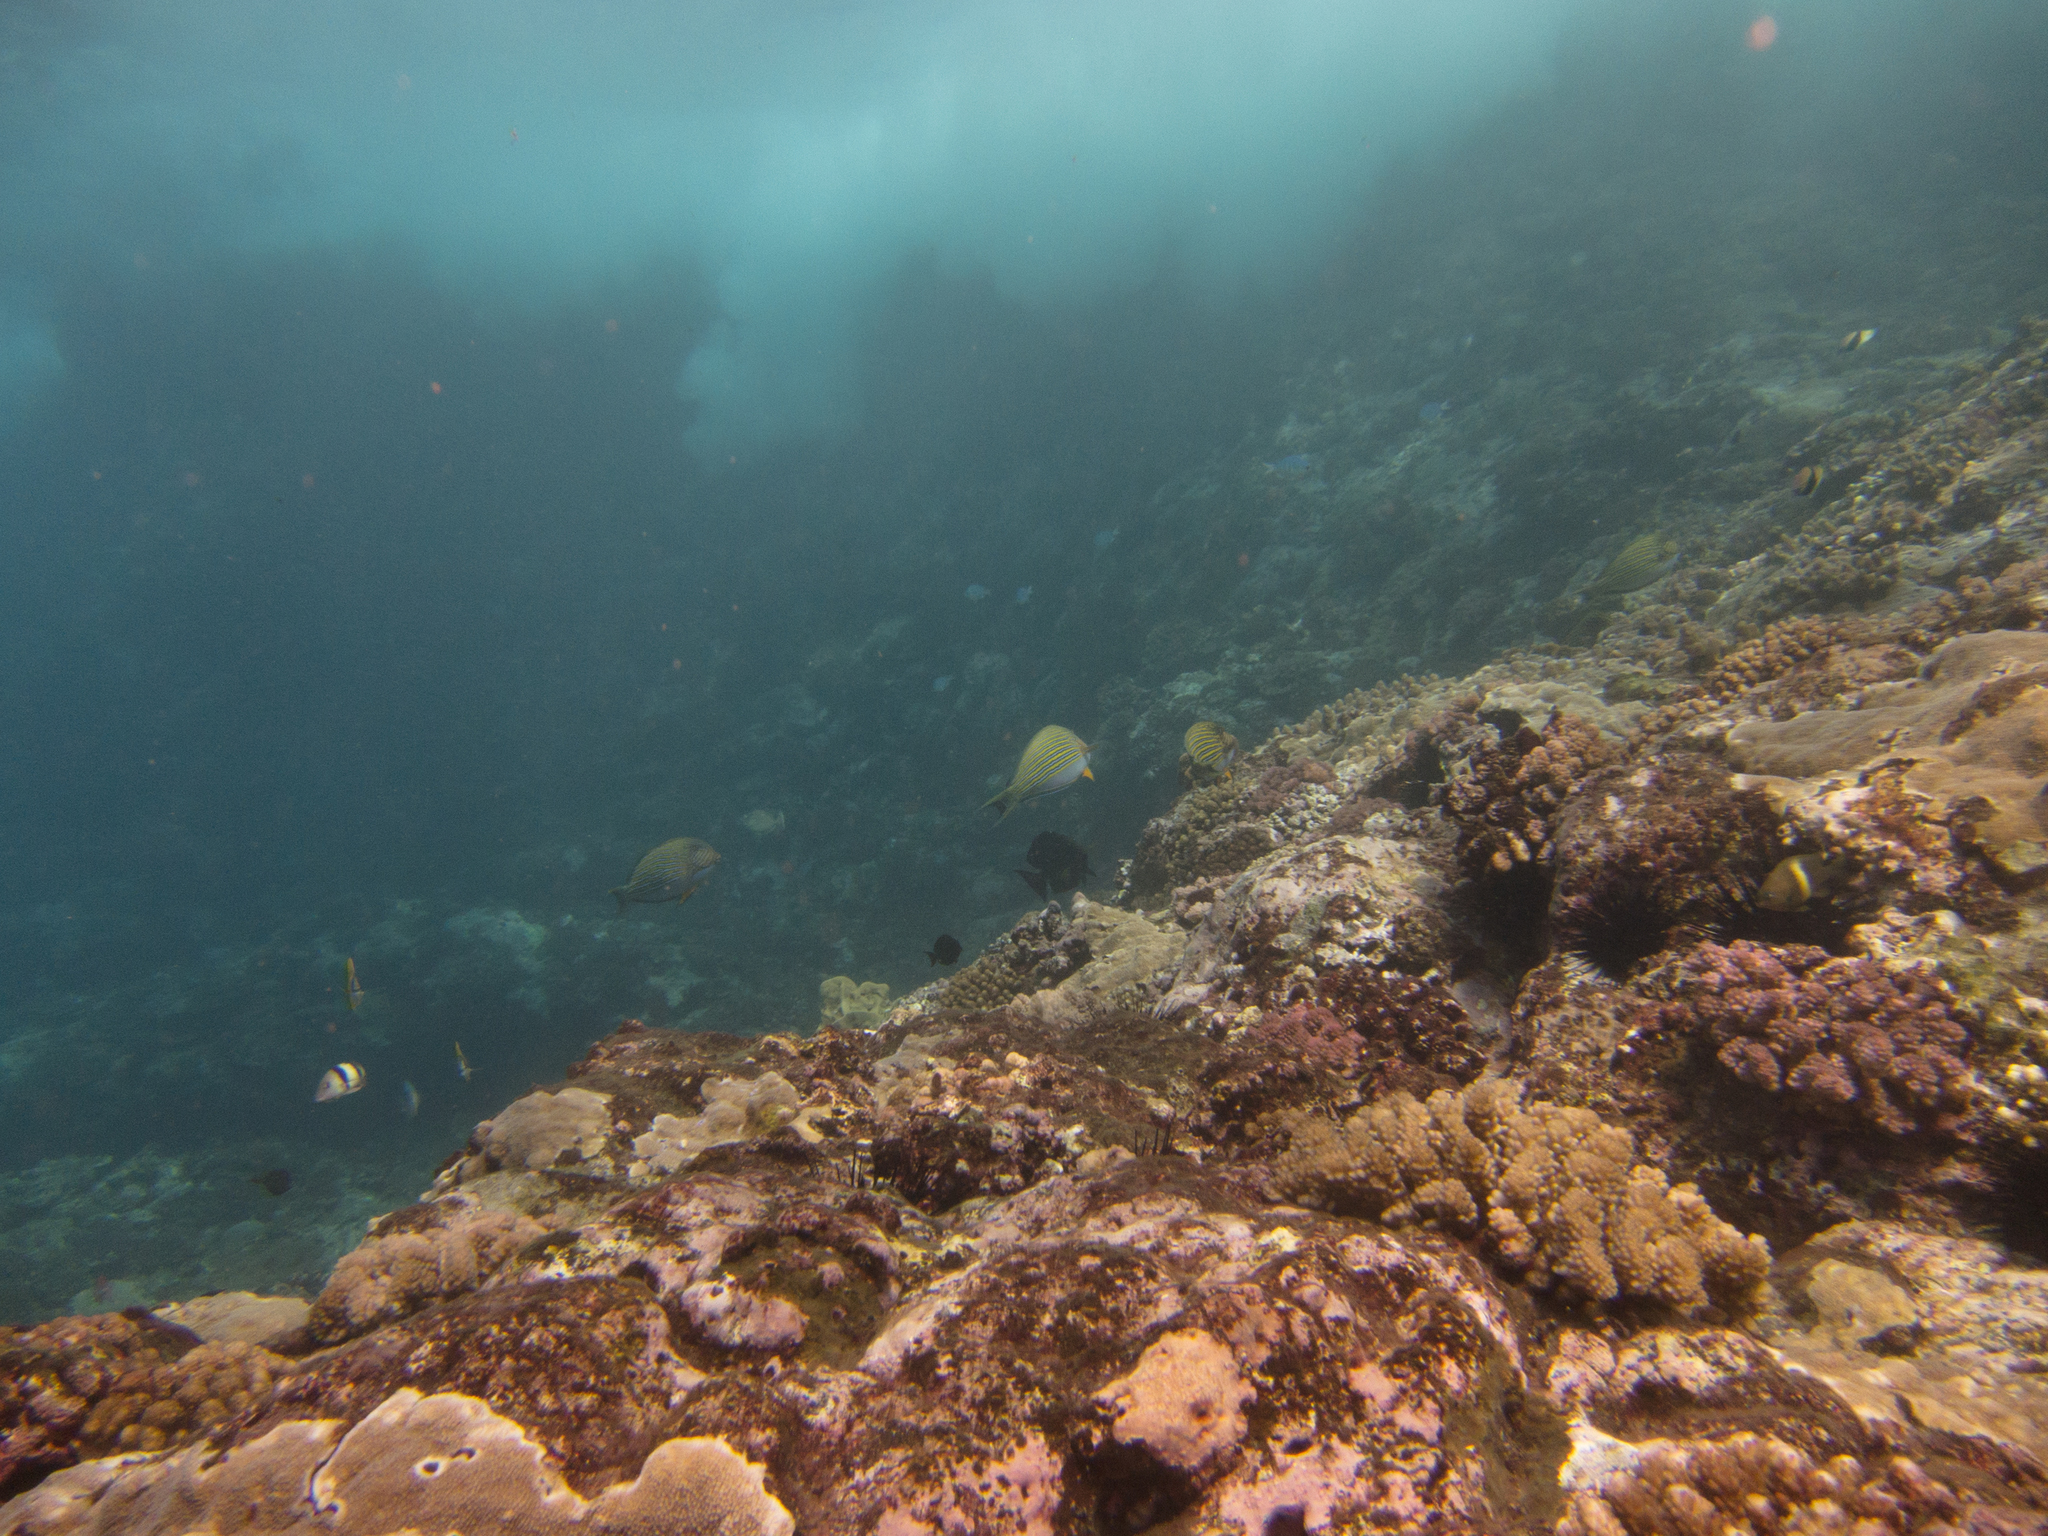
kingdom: Animalia
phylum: Chordata
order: Perciformes
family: Acanthuridae
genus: Acanthurus
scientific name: Acanthurus lineatus
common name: Striped surgeonfish
